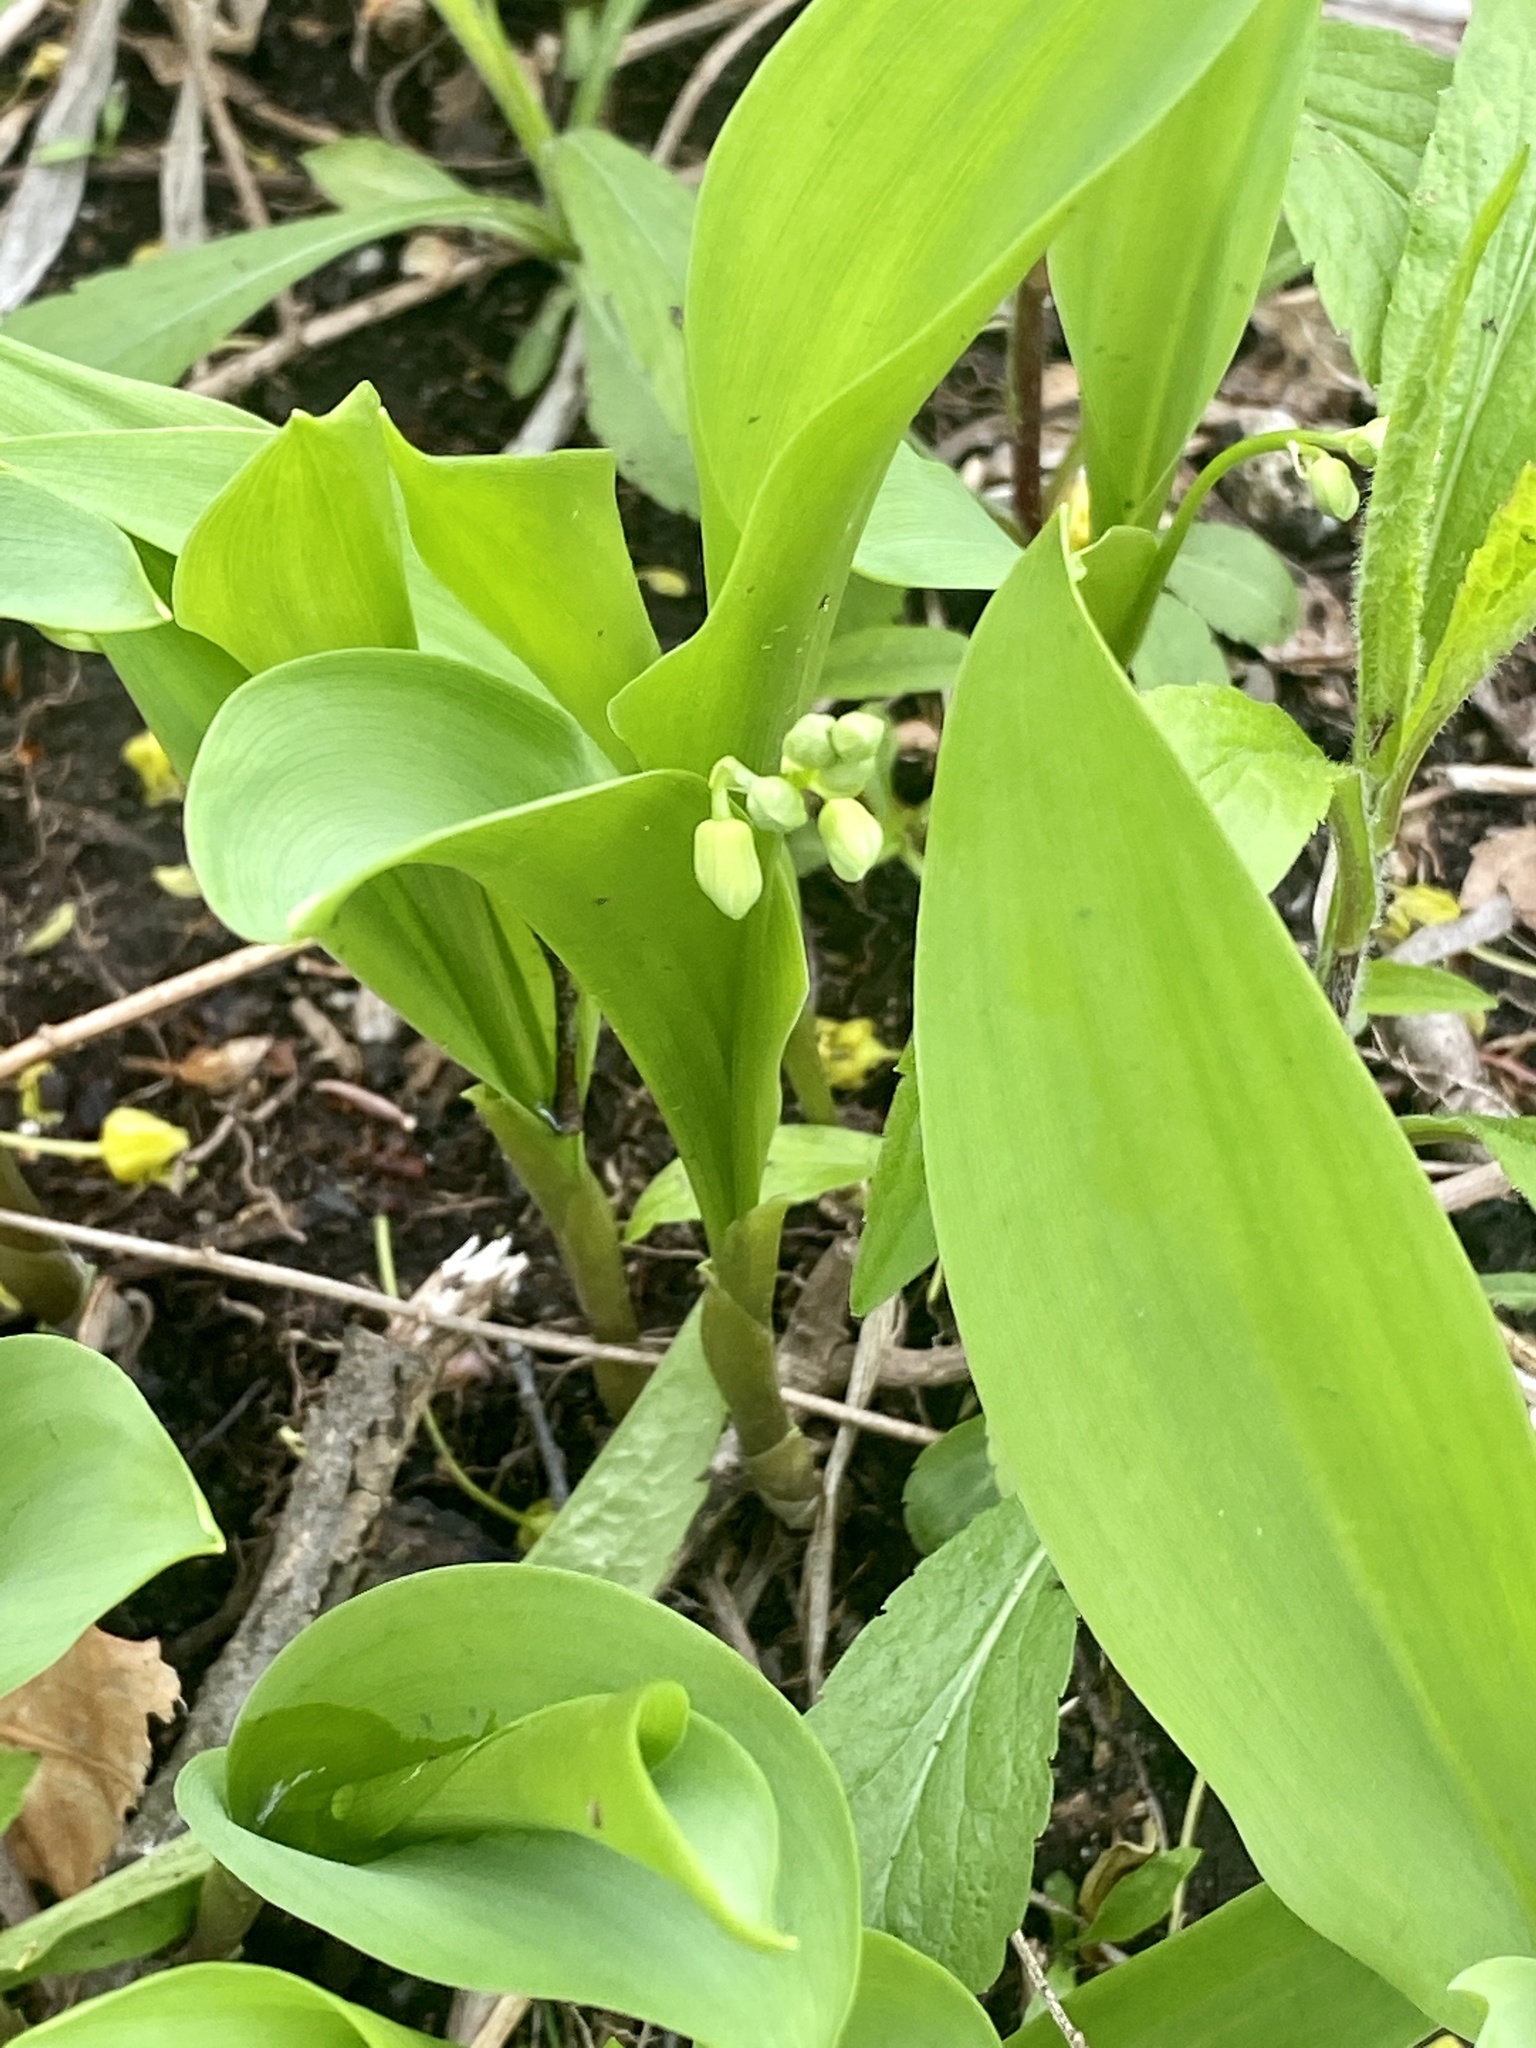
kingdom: Plantae
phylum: Tracheophyta
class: Liliopsida
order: Asparagales
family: Asparagaceae
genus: Convallaria
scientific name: Convallaria majalis
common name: Lily-of-the-valley
